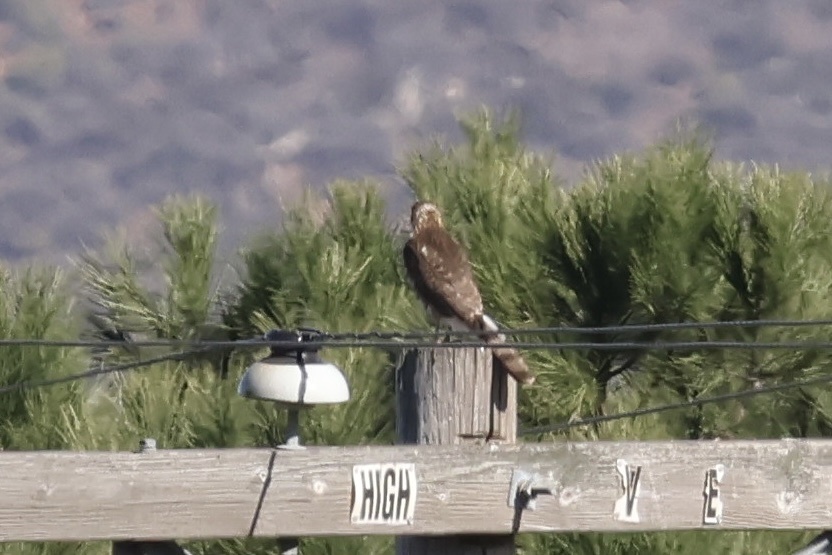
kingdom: Animalia
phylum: Chordata
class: Aves
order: Accipitriformes
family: Accipitridae
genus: Accipiter
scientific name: Accipiter cooperii
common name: Cooper's hawk
